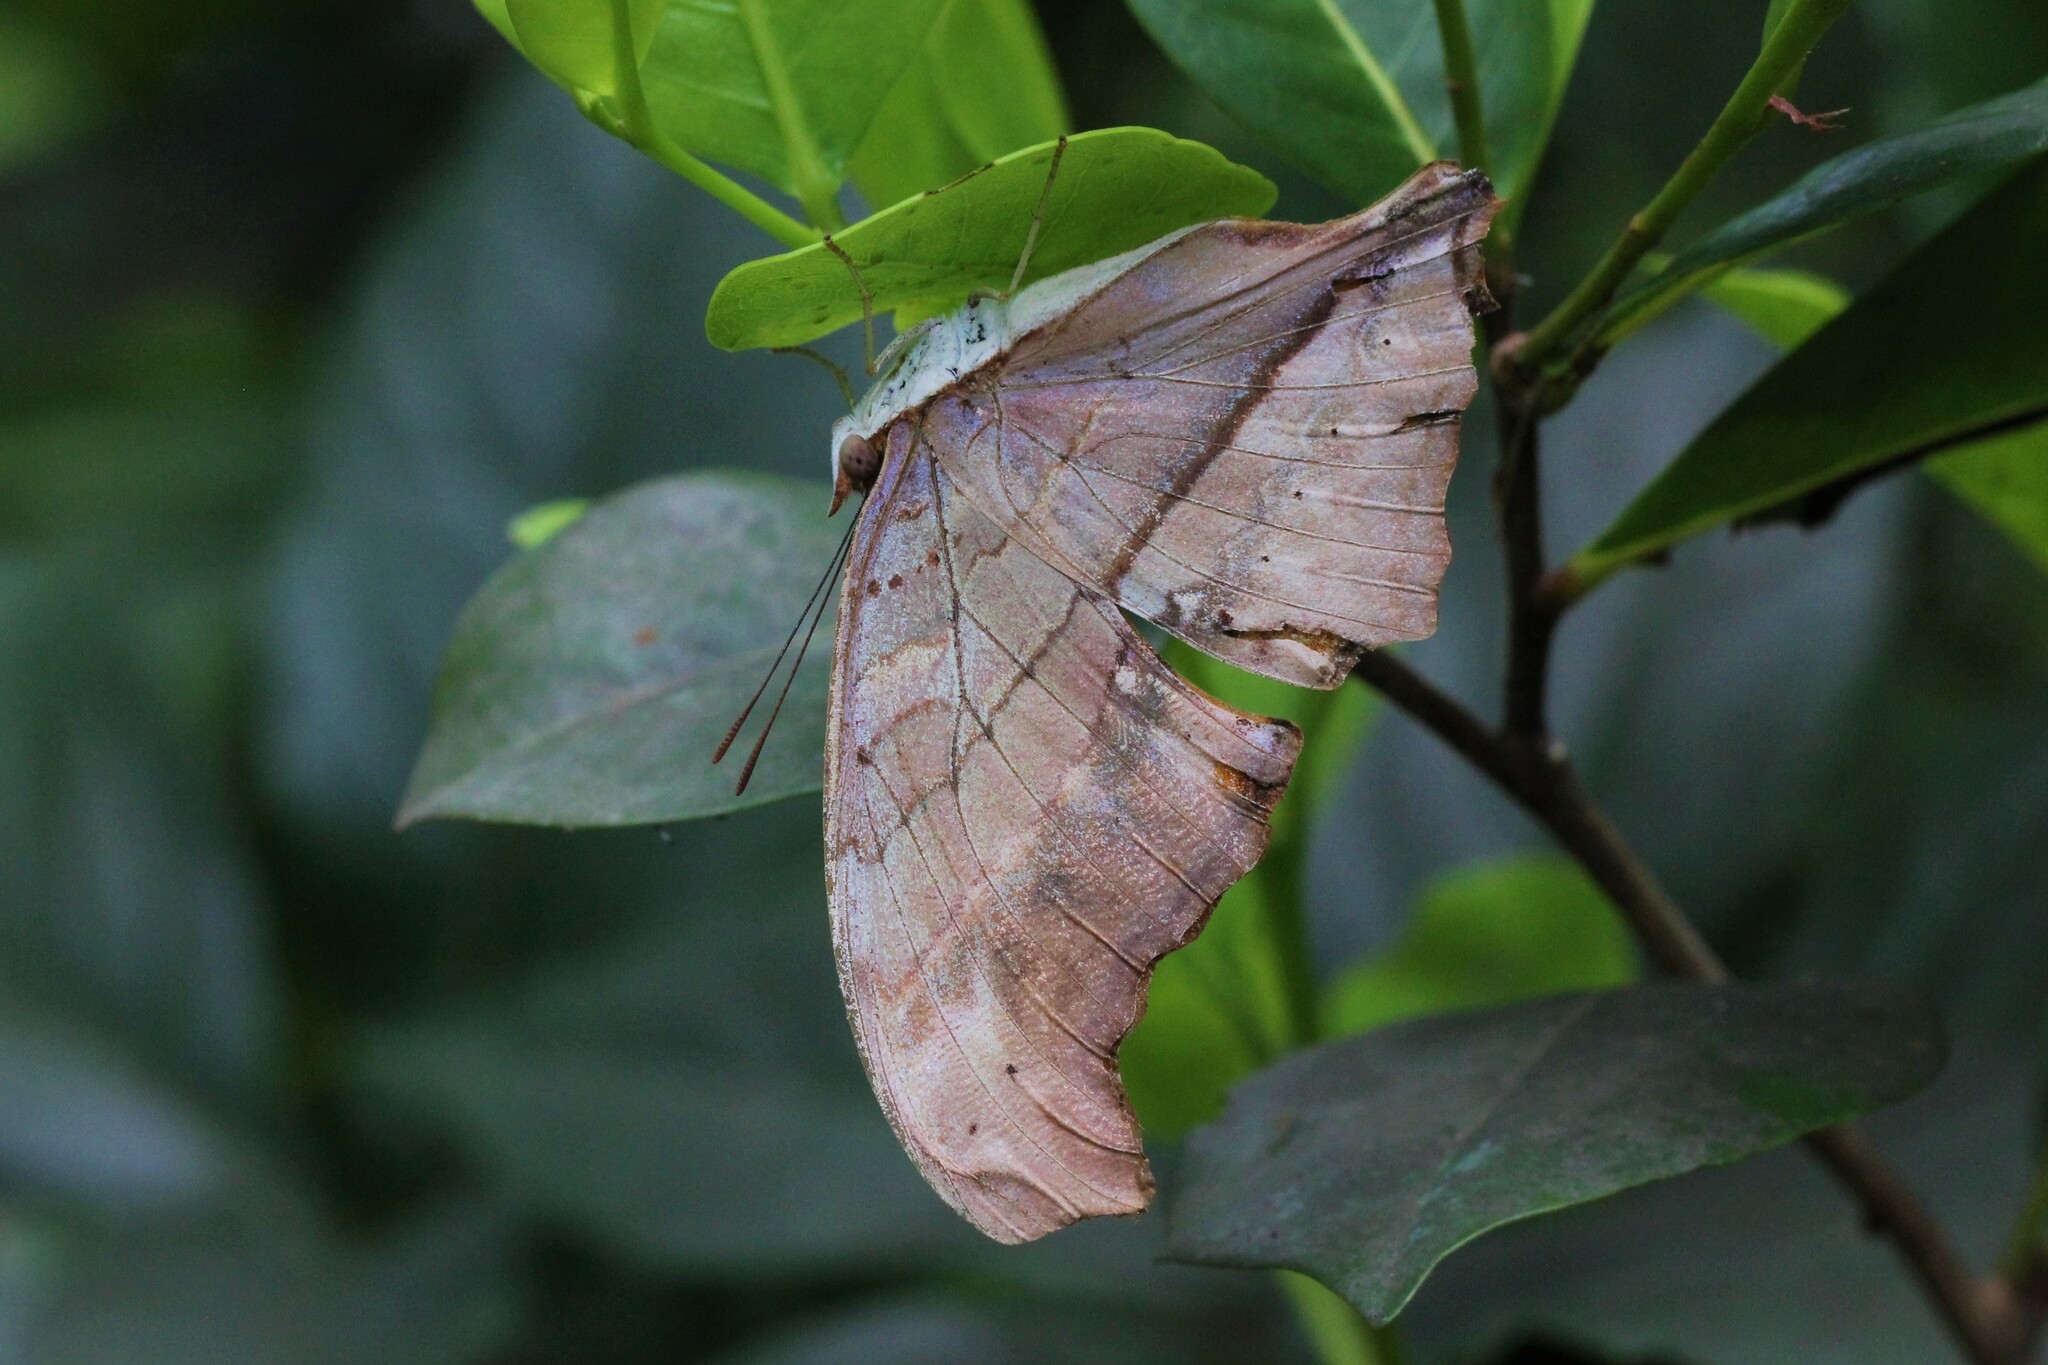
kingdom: Animalia
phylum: Arthropoda
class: Insecta
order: Lepidoptera
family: Nymphalidae
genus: Marpesia
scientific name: Marpesia petreus
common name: Red dagger wing
